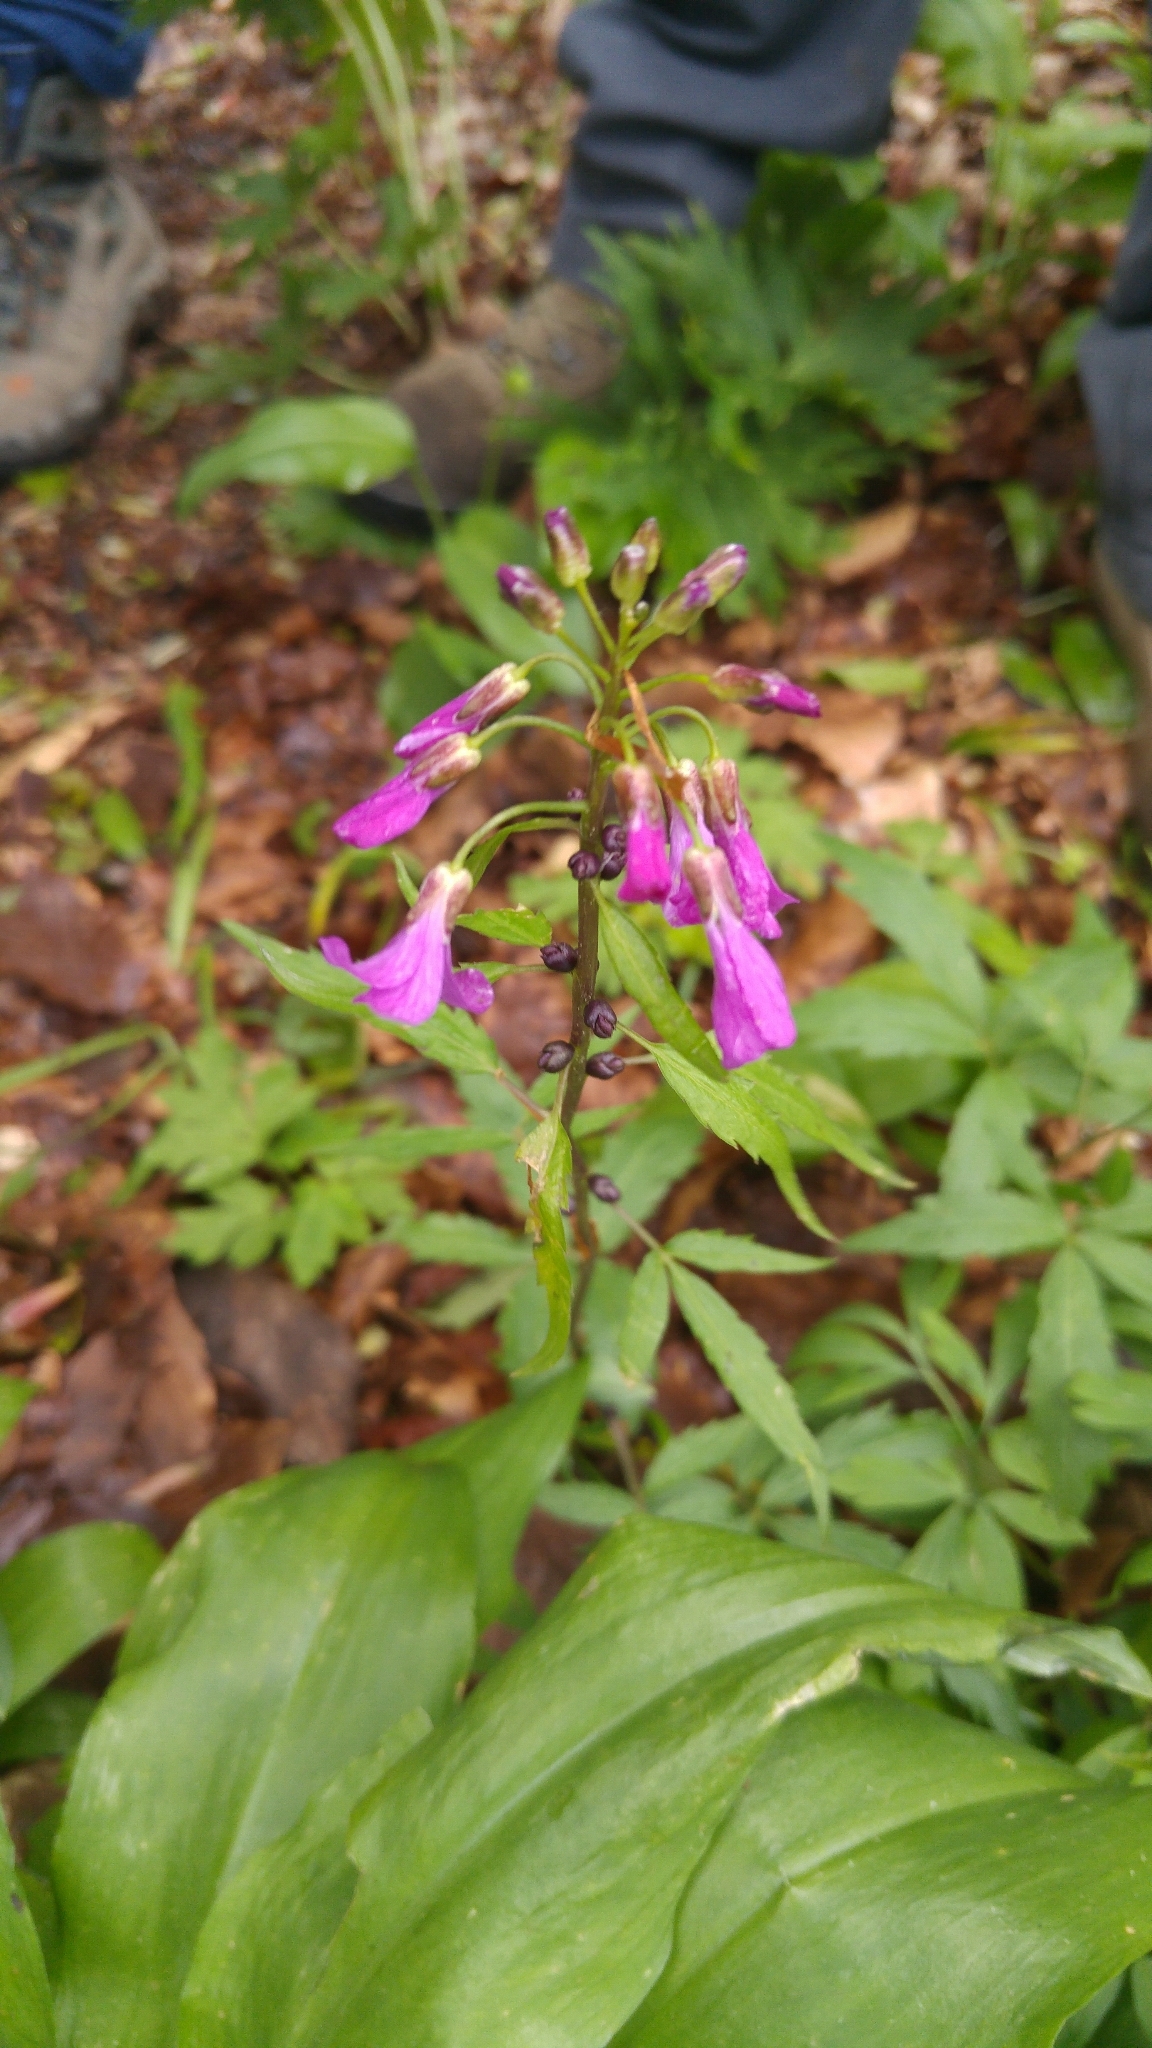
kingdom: Plantae
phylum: Tracheophyta
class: Magnoliopsida
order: Brassicales
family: Brassicaceae
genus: Cardamine
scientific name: Cardamine bulbifera
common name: Coralroot bittercress
